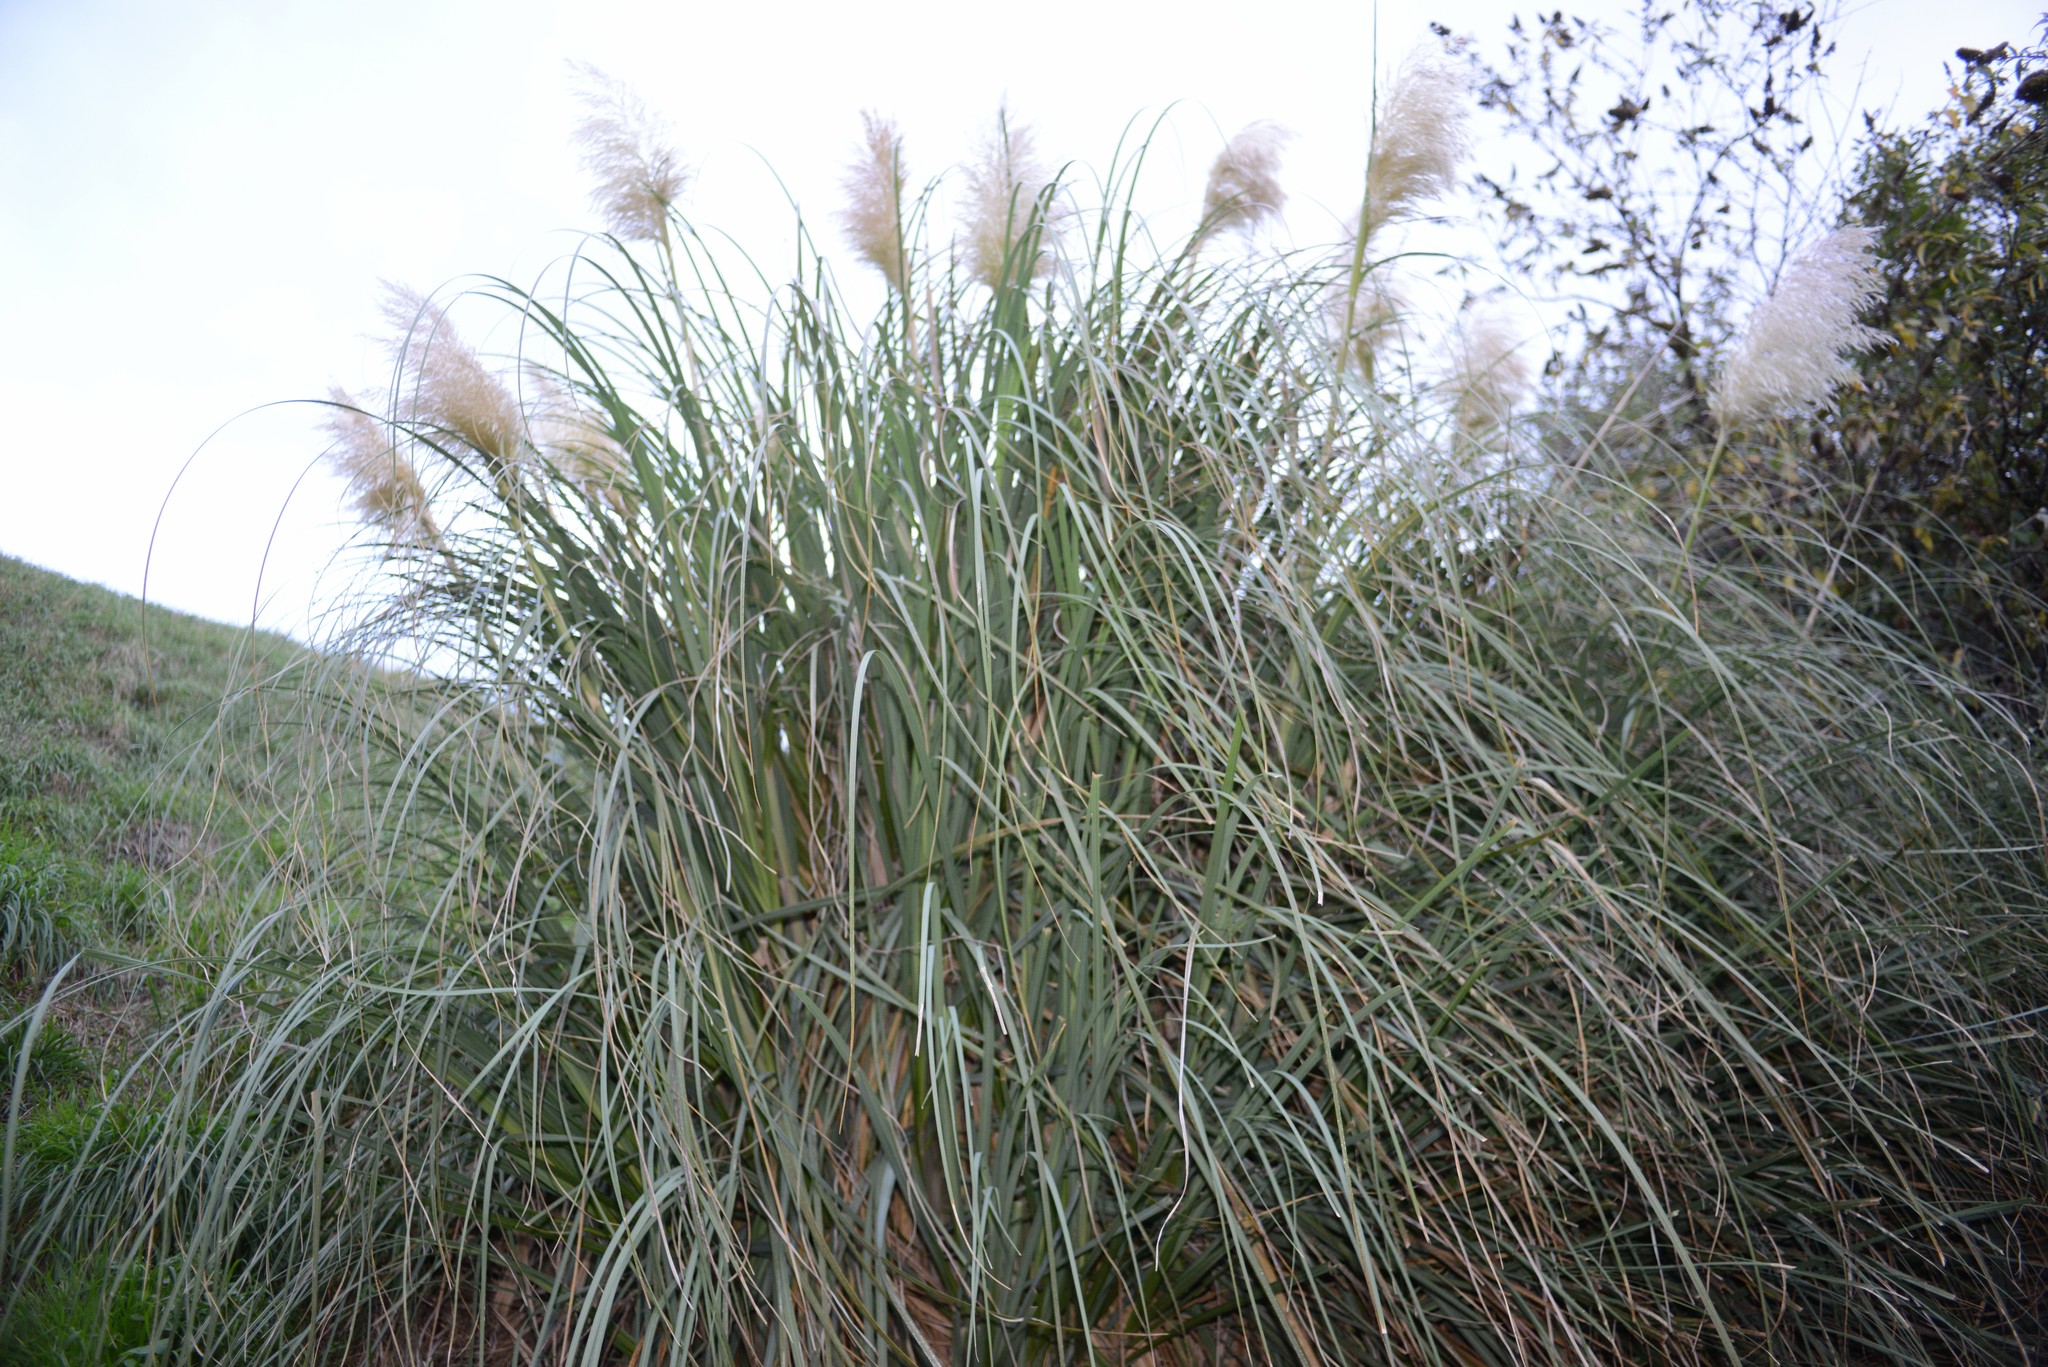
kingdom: Plantae
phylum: Tracheophyta
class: Liliopsida
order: Poales
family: Poaceae
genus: Cortaderia
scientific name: Cortaderia selloana
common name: Uruguayan pampas grass
